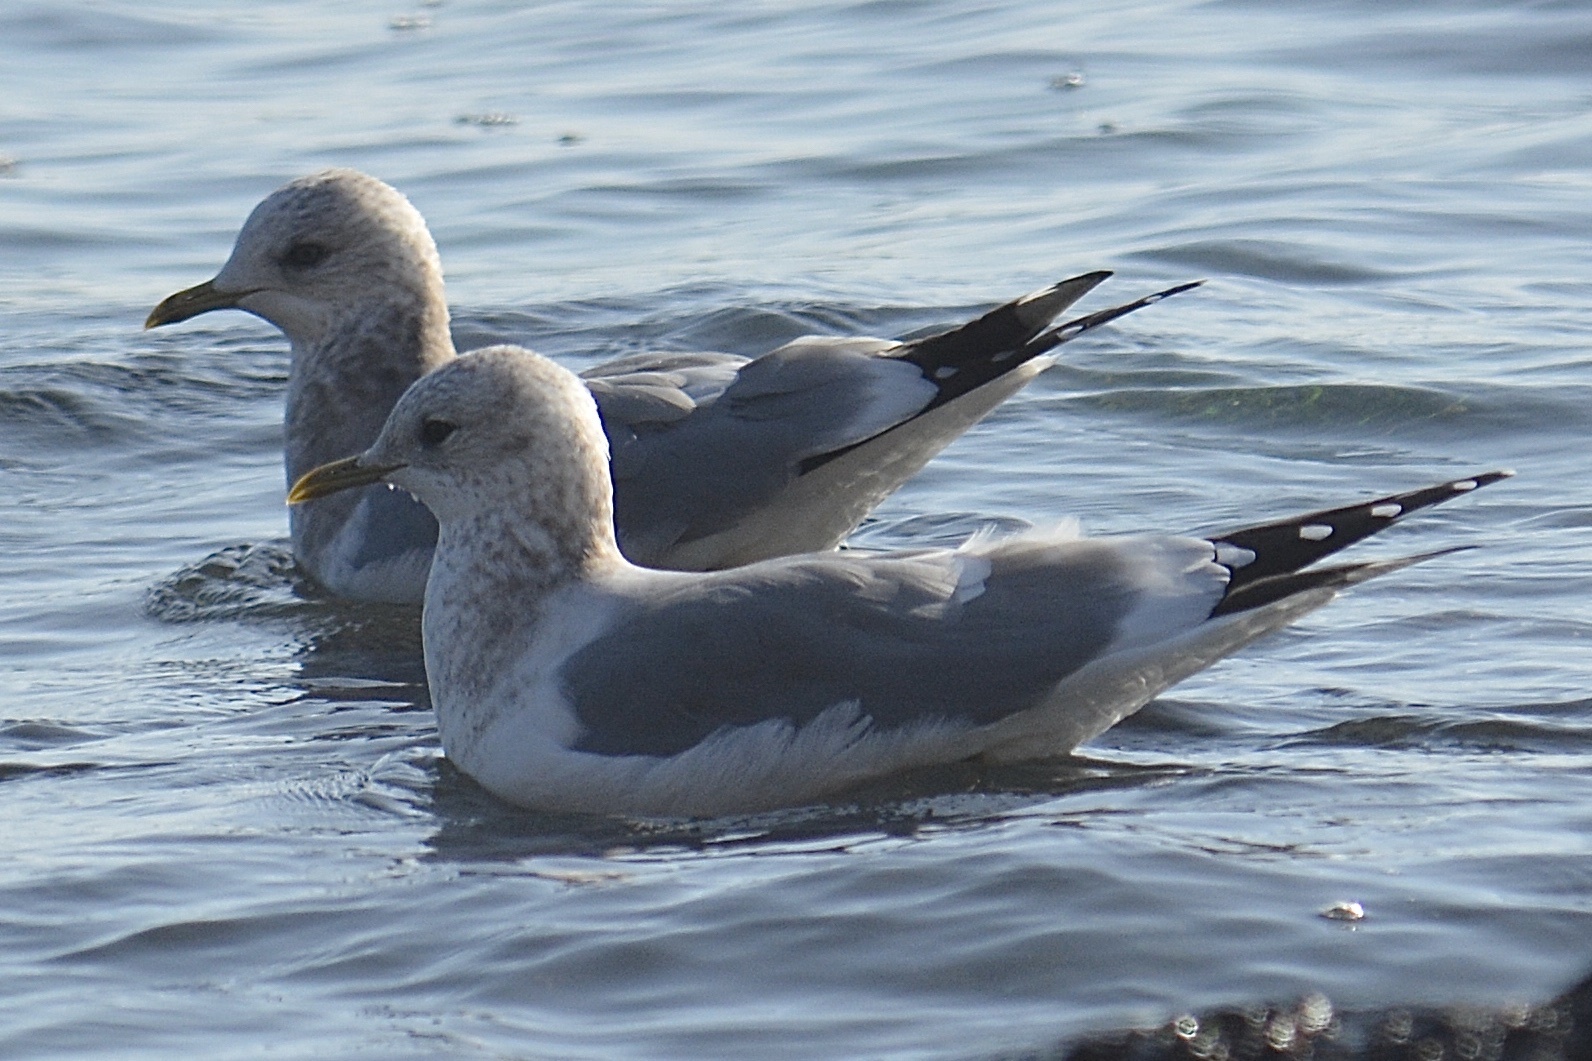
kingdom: Animalia
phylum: Chordata
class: Aves
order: Charadriiformes
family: Laridae
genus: Larus
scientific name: Larus brachyrhynchus
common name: Short-billed gull
